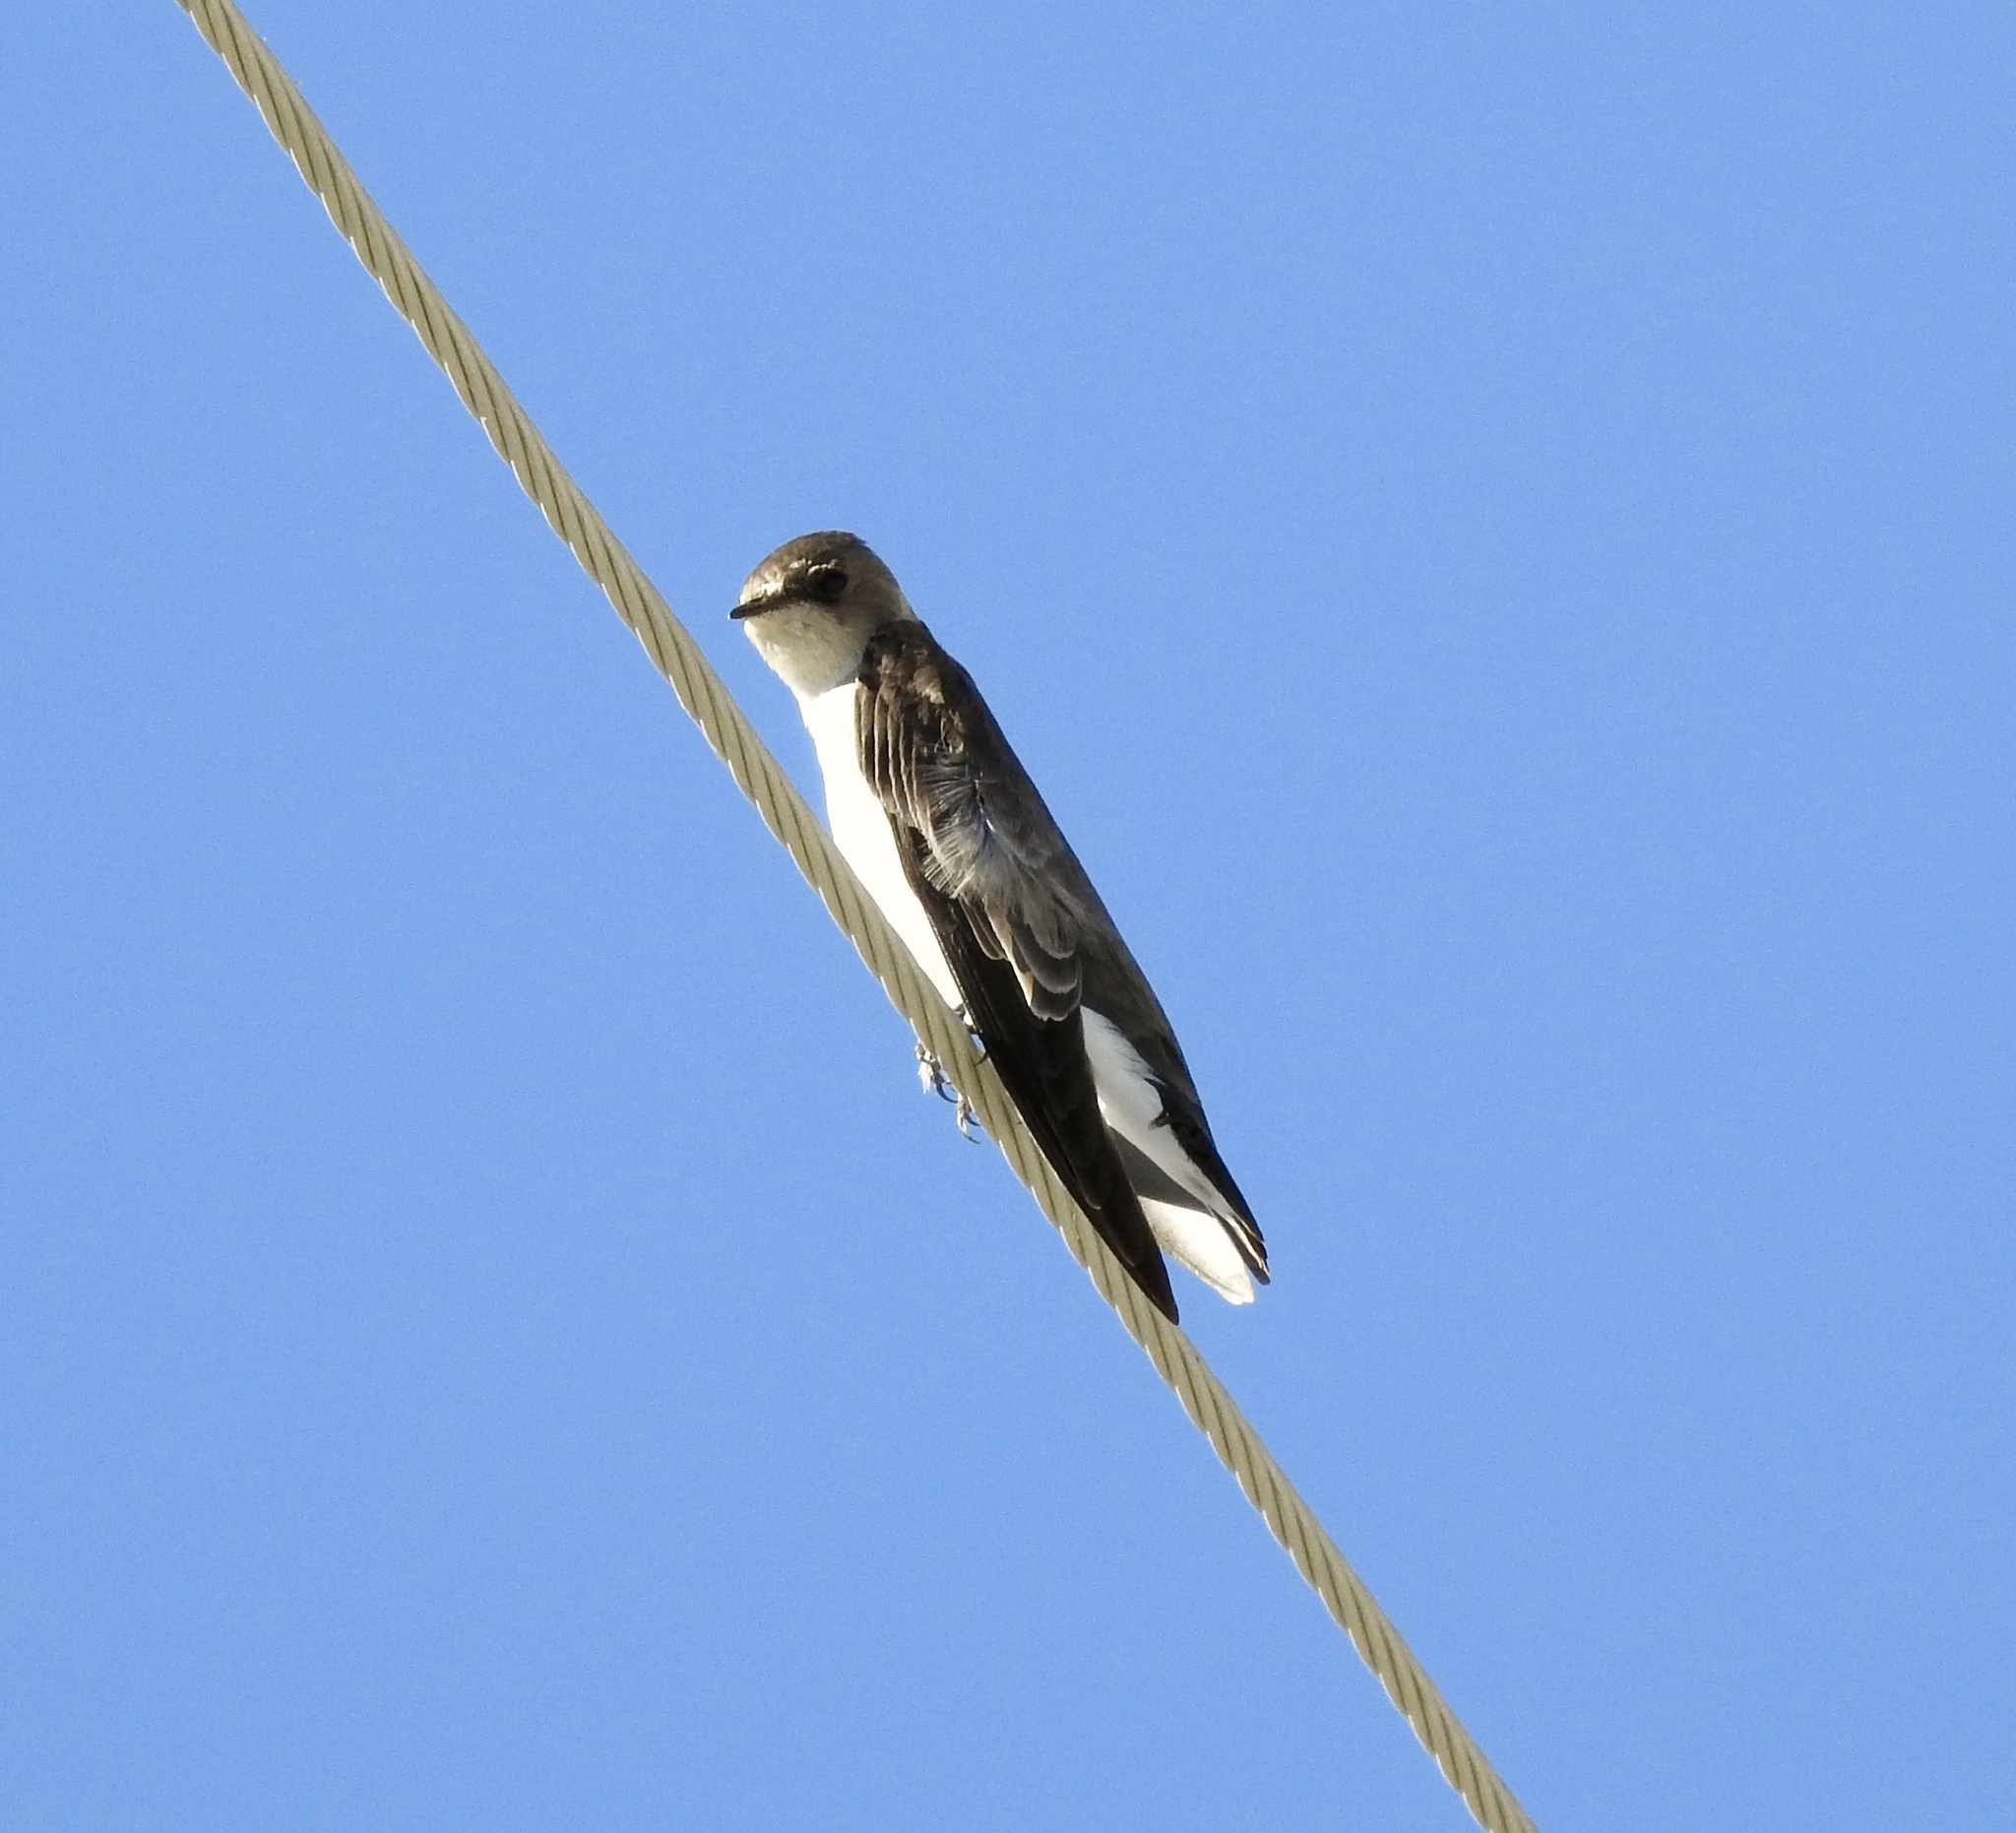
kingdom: Animalia
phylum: Chordata
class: Aves
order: Passeriformes
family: Hirundinidae
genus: Stelgidopteryx
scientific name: Stelgidopteryx serripennis
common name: Northern rough-winged swallow
